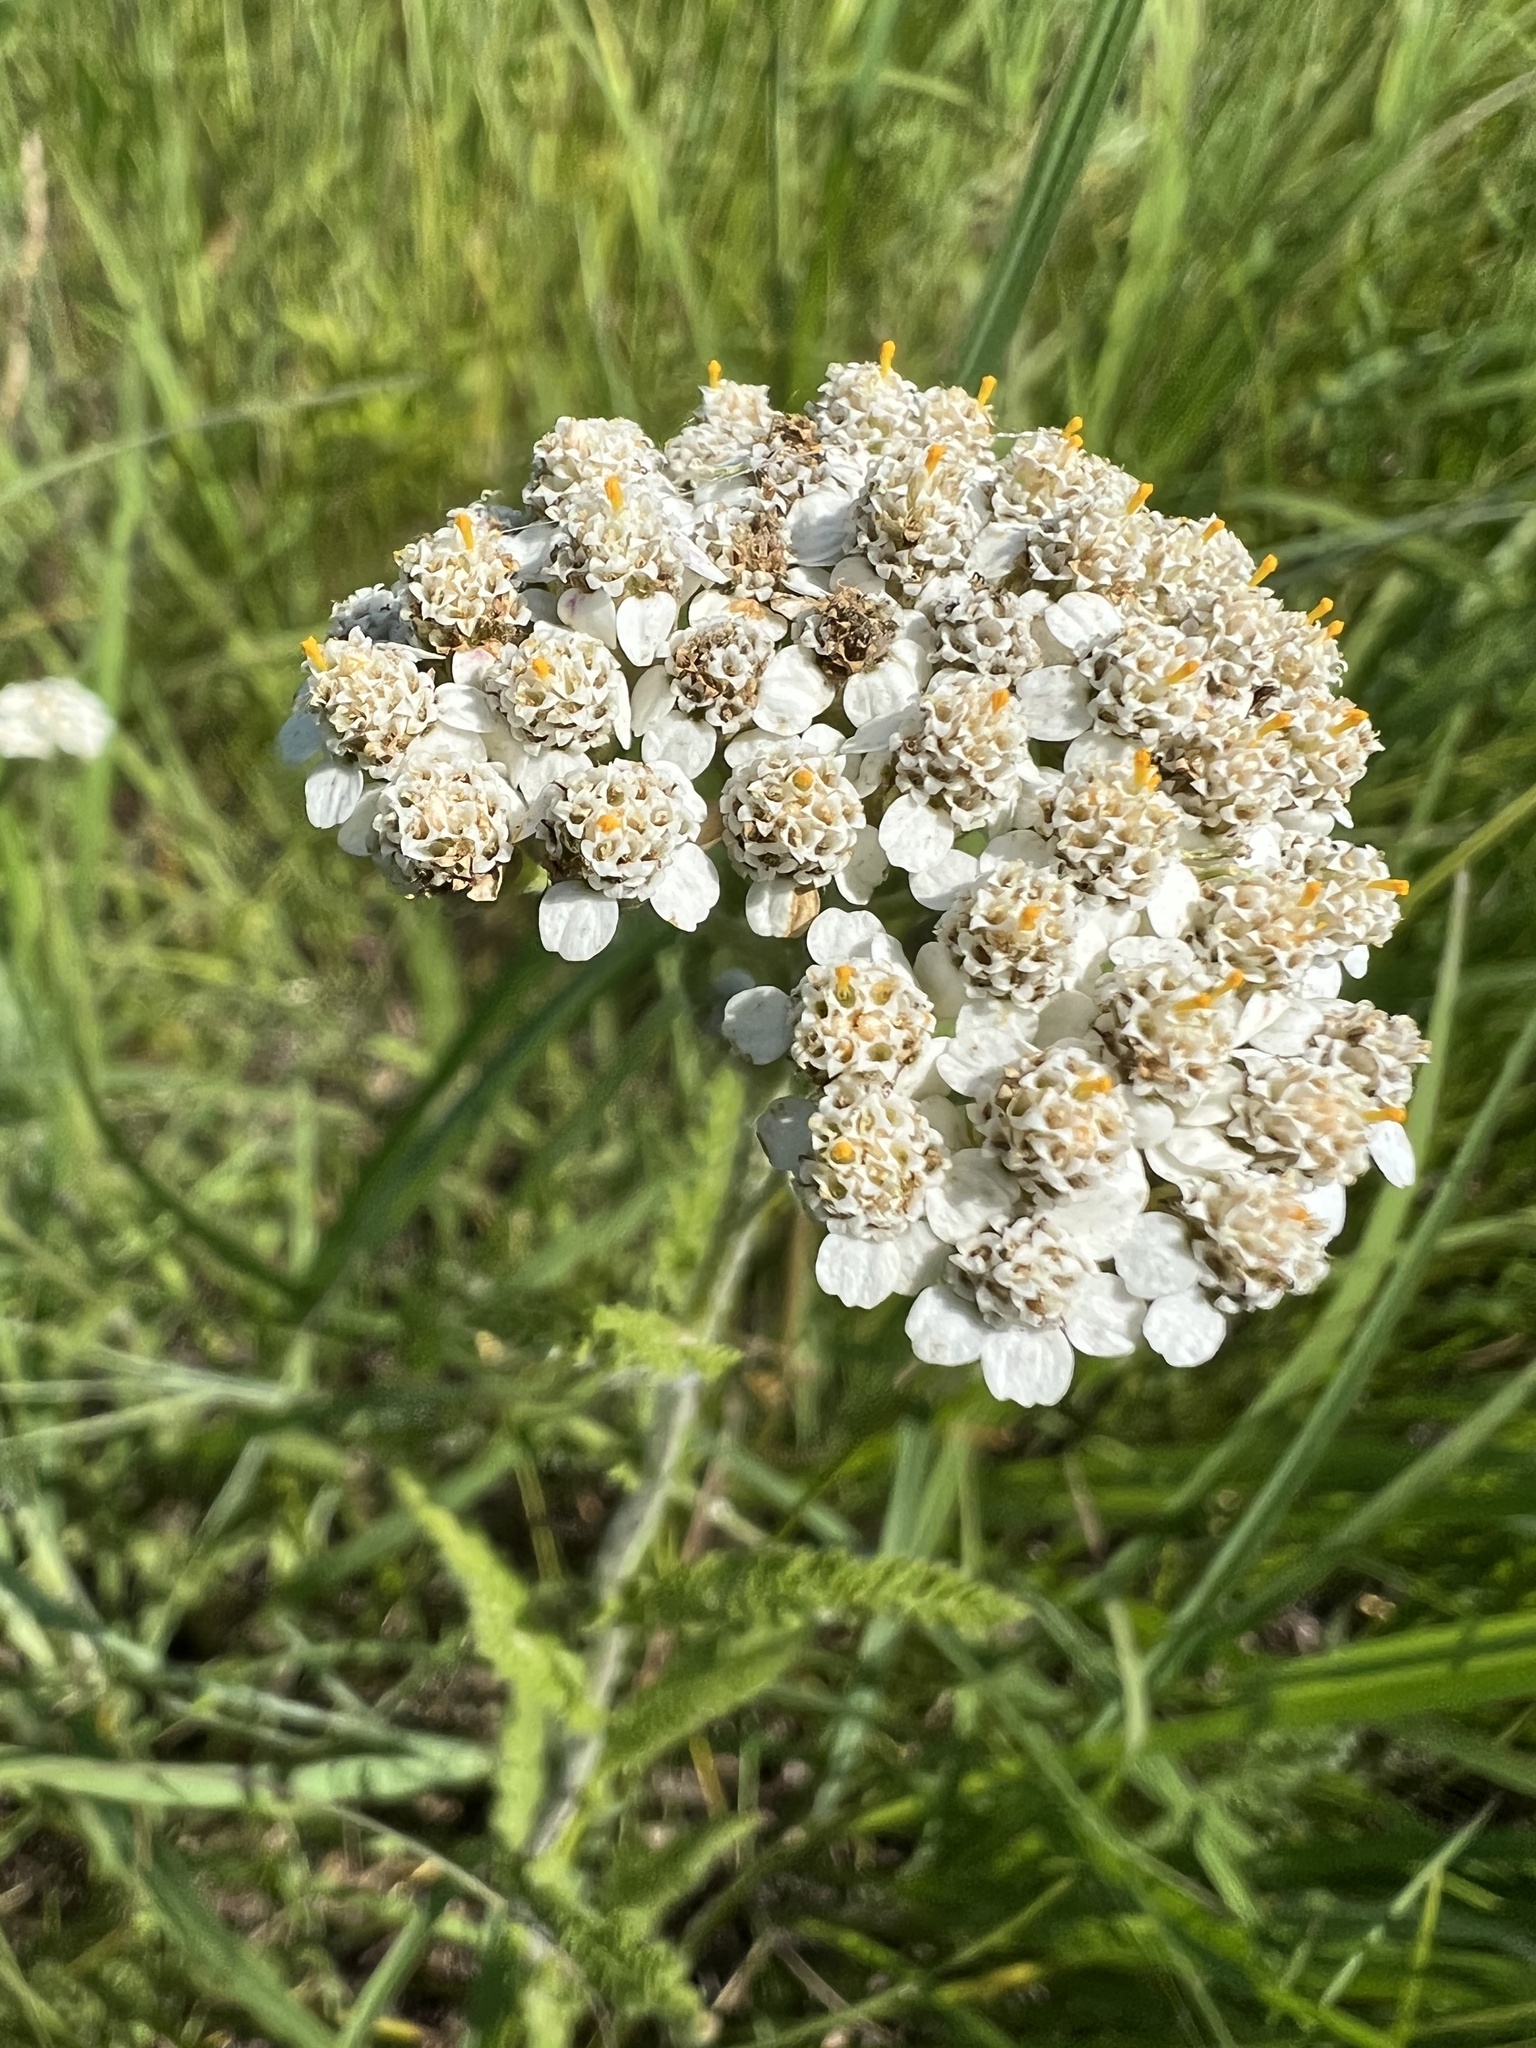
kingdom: Plantae
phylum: Tracheophyta
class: Magnoliopsida
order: Asterales
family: Asteraceae
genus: Achillea
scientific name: Achillea millefolium
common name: Yarrow
